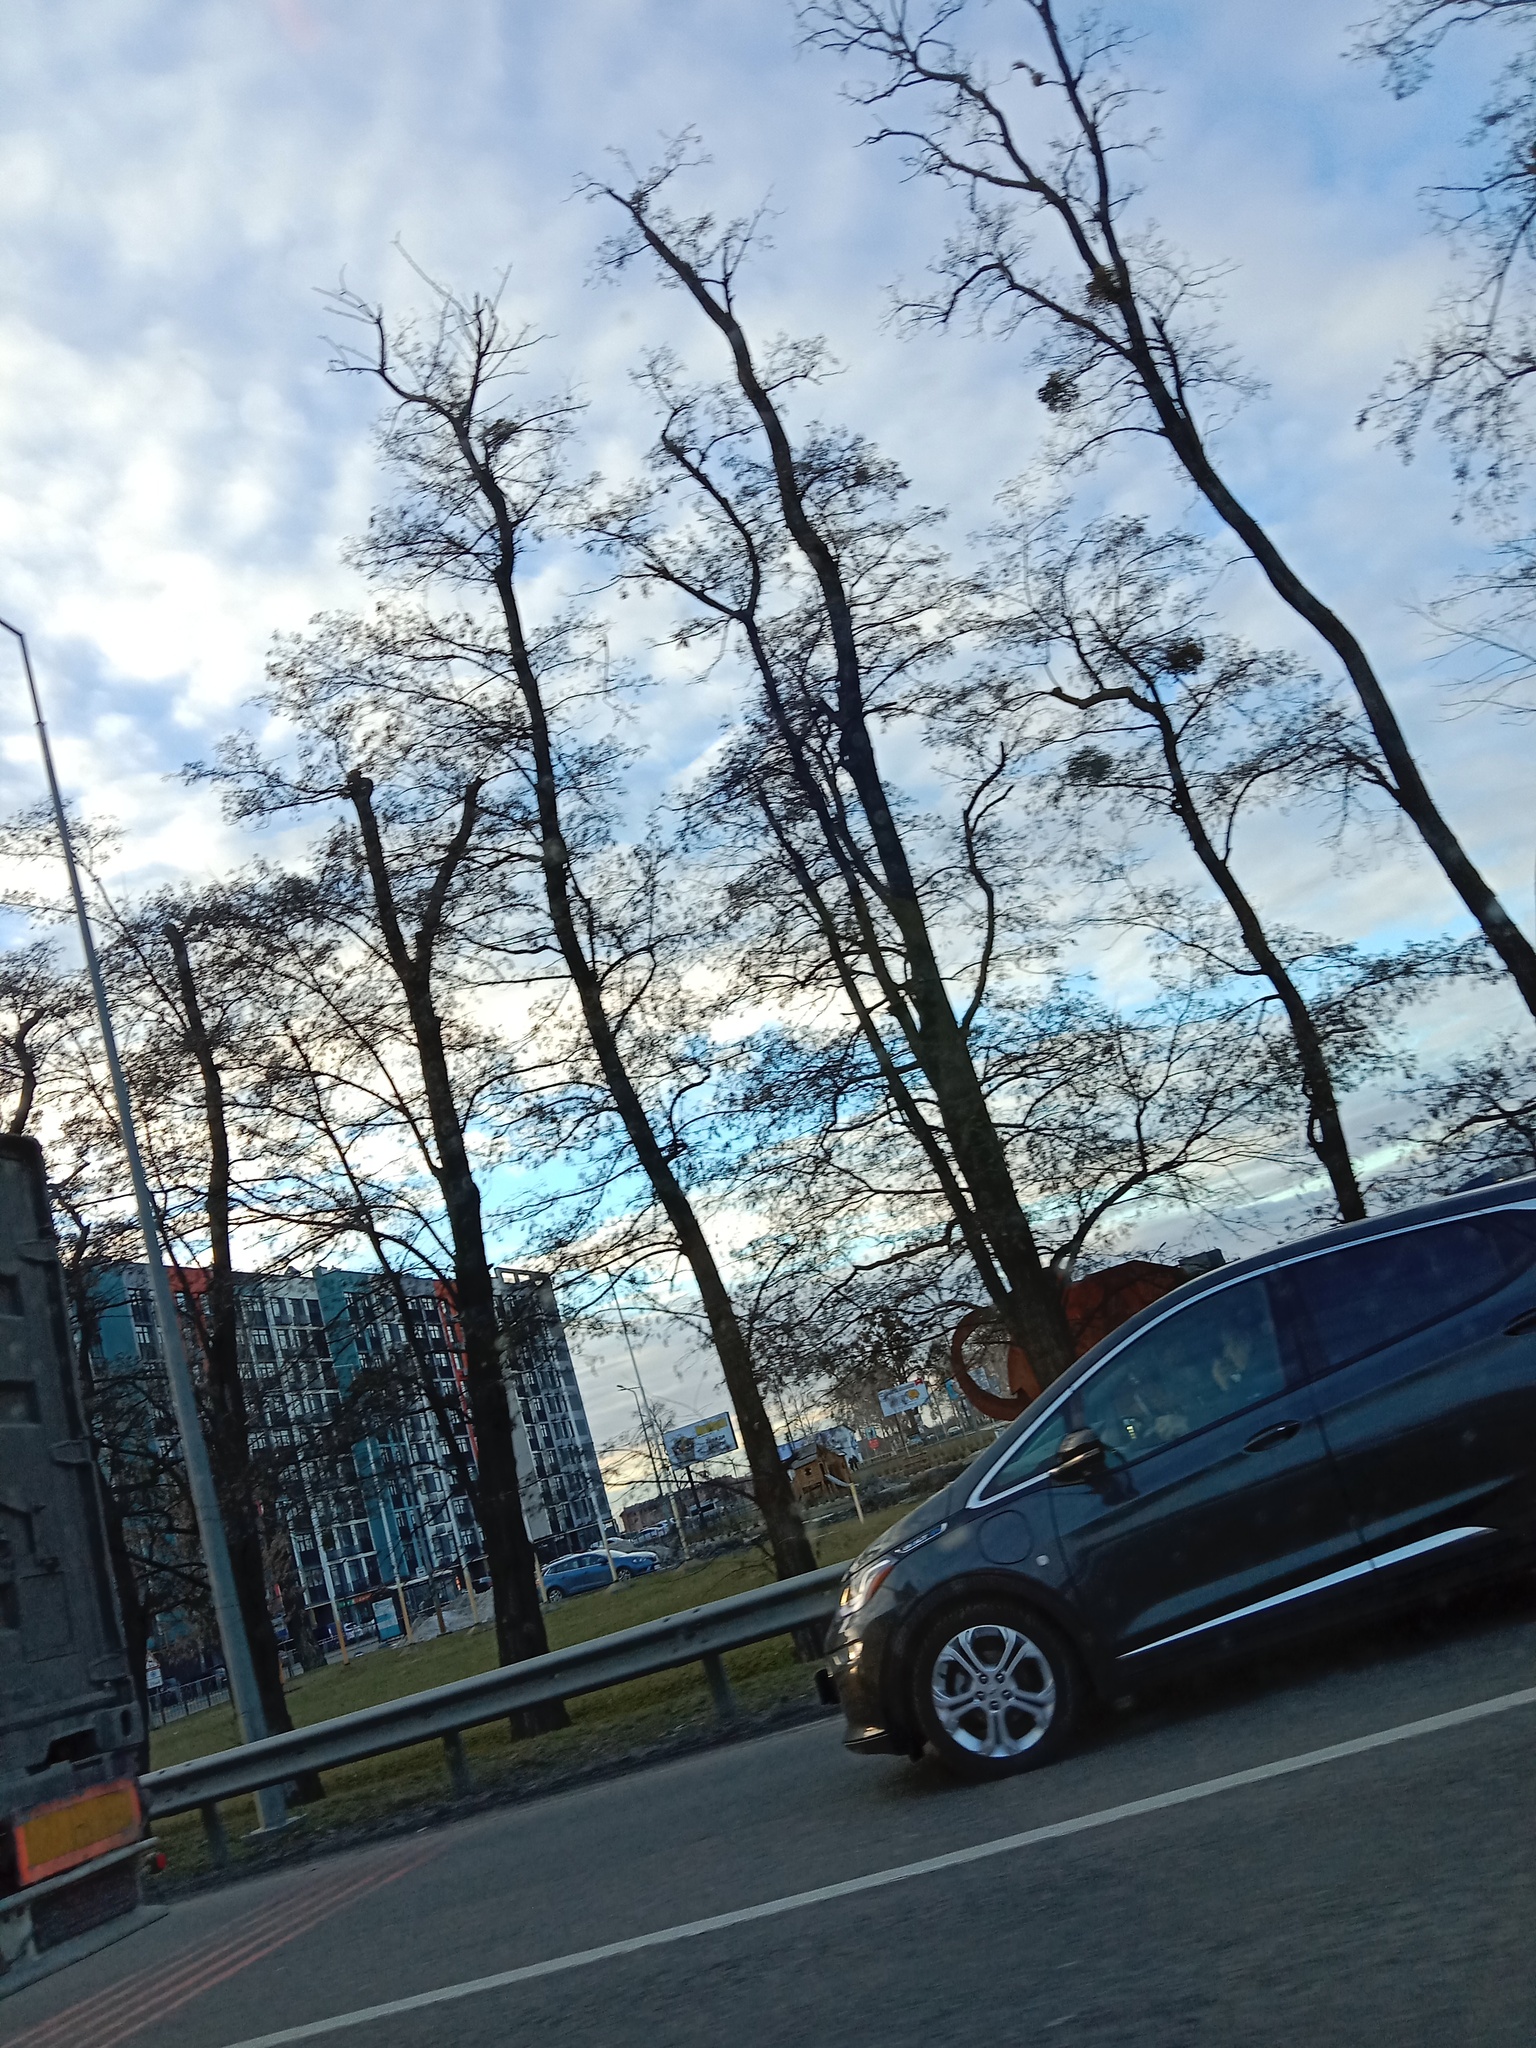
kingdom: Plantae
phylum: Tracheophyta
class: Magnoliopsida
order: Santalales
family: Viscaceae
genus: Viscum
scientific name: Viscum album
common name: Mistletoe
